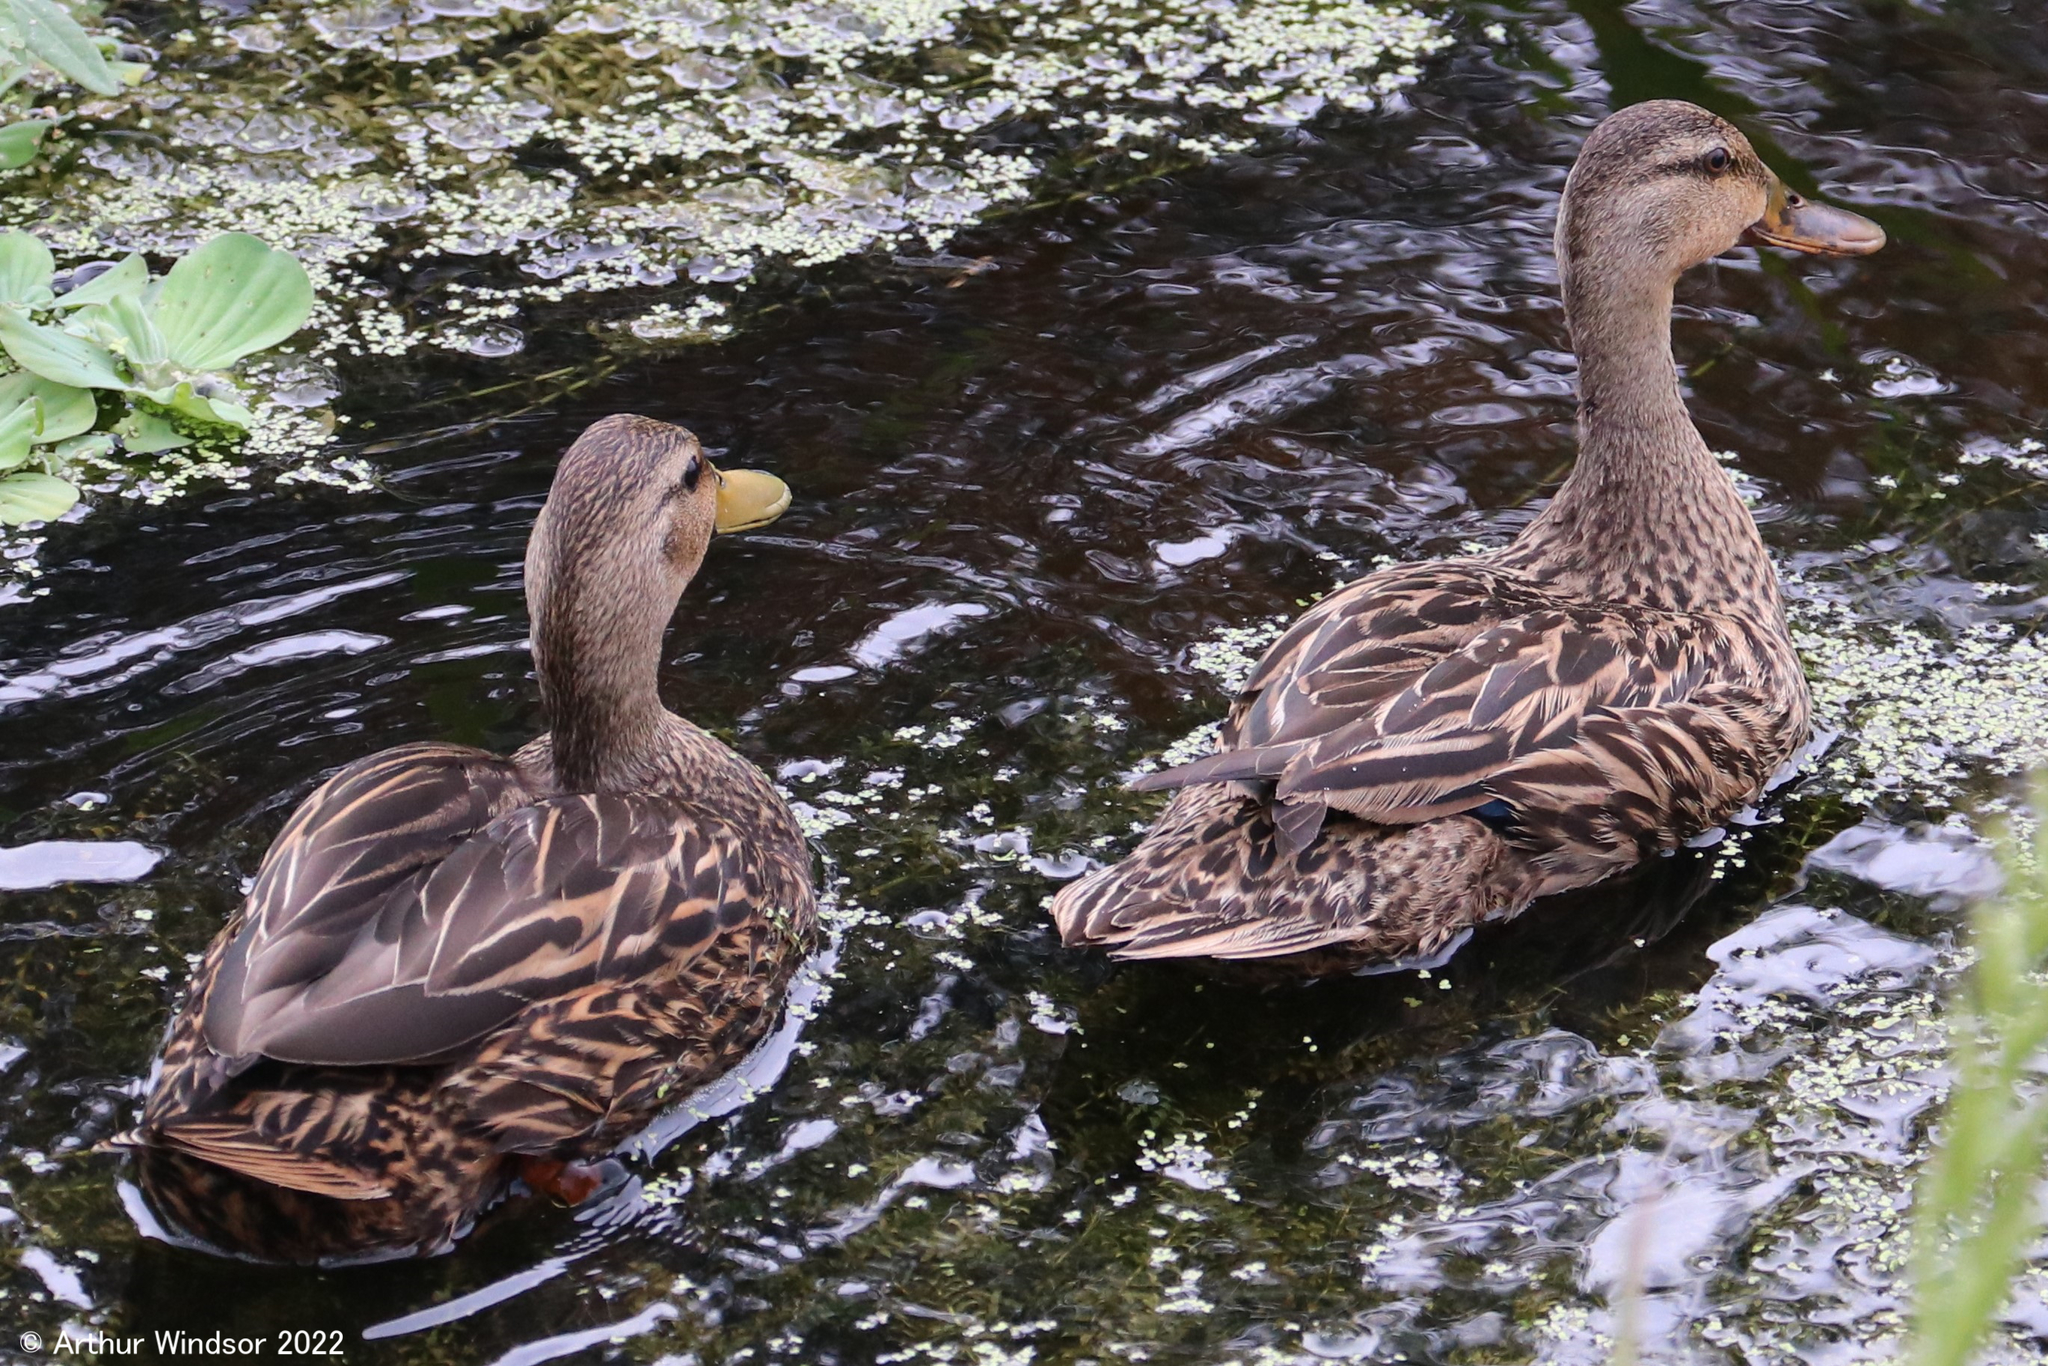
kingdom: Animalia
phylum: Chordata
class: Aves
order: Anseriformes
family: Anatidae
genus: Anas
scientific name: Anas fulvigula
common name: Mottled duck
